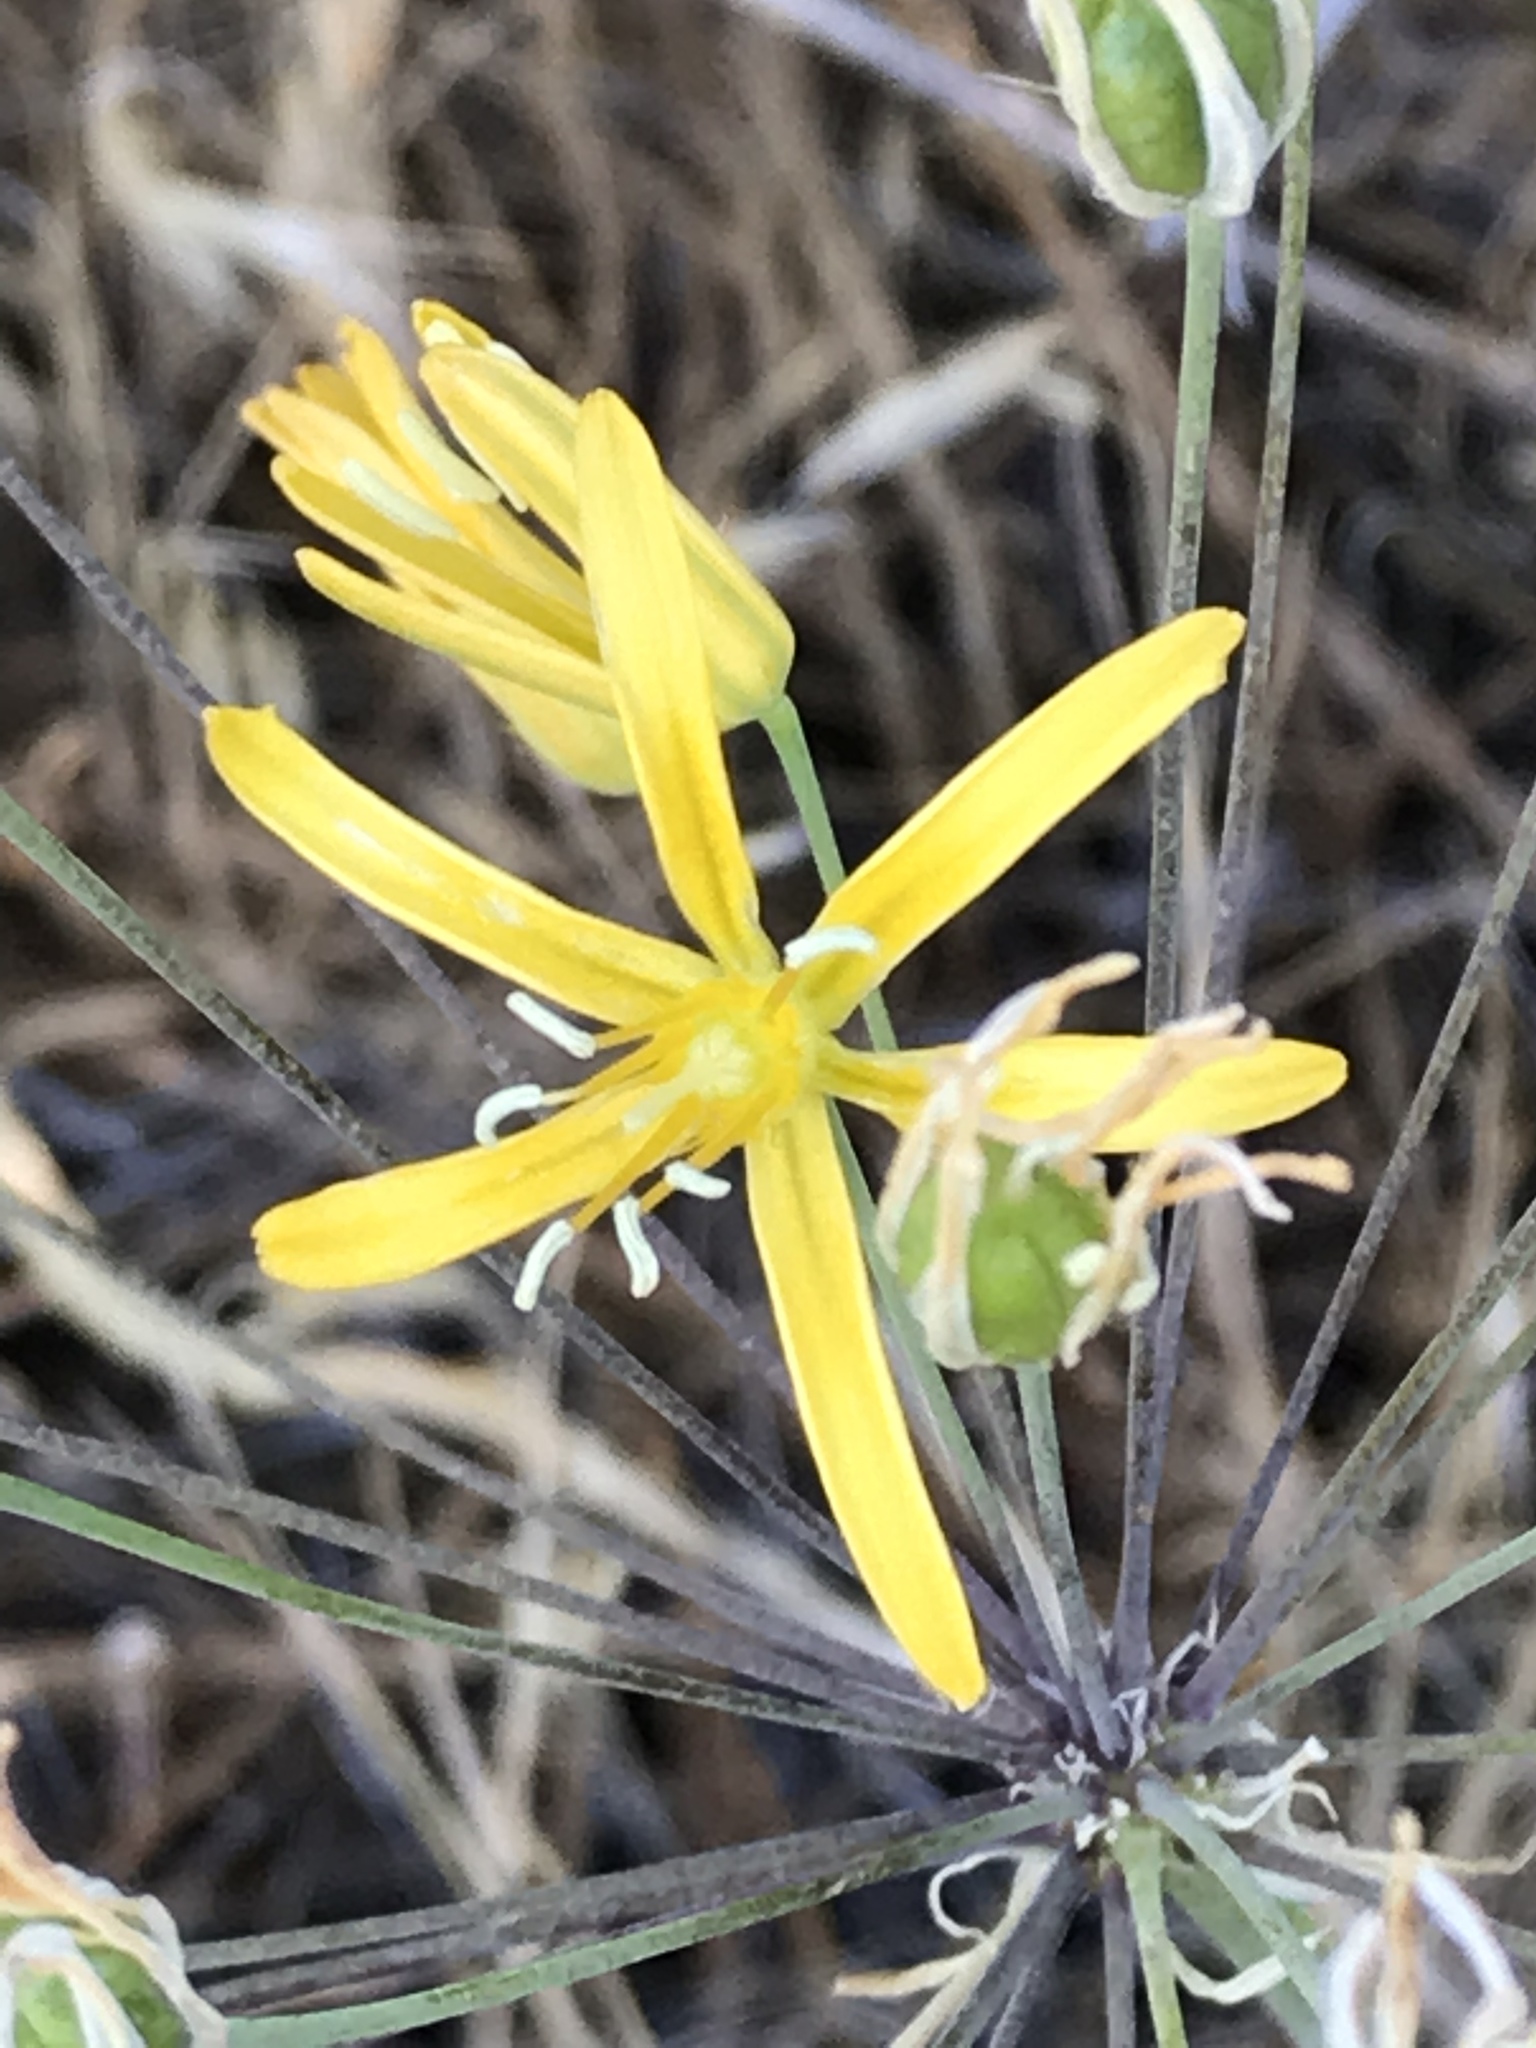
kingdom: Plantae
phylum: Tracheophyta
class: Liliopsida
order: Asparagales
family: Asparagaceae
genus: Bloomeria
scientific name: Bloomeria crocea
